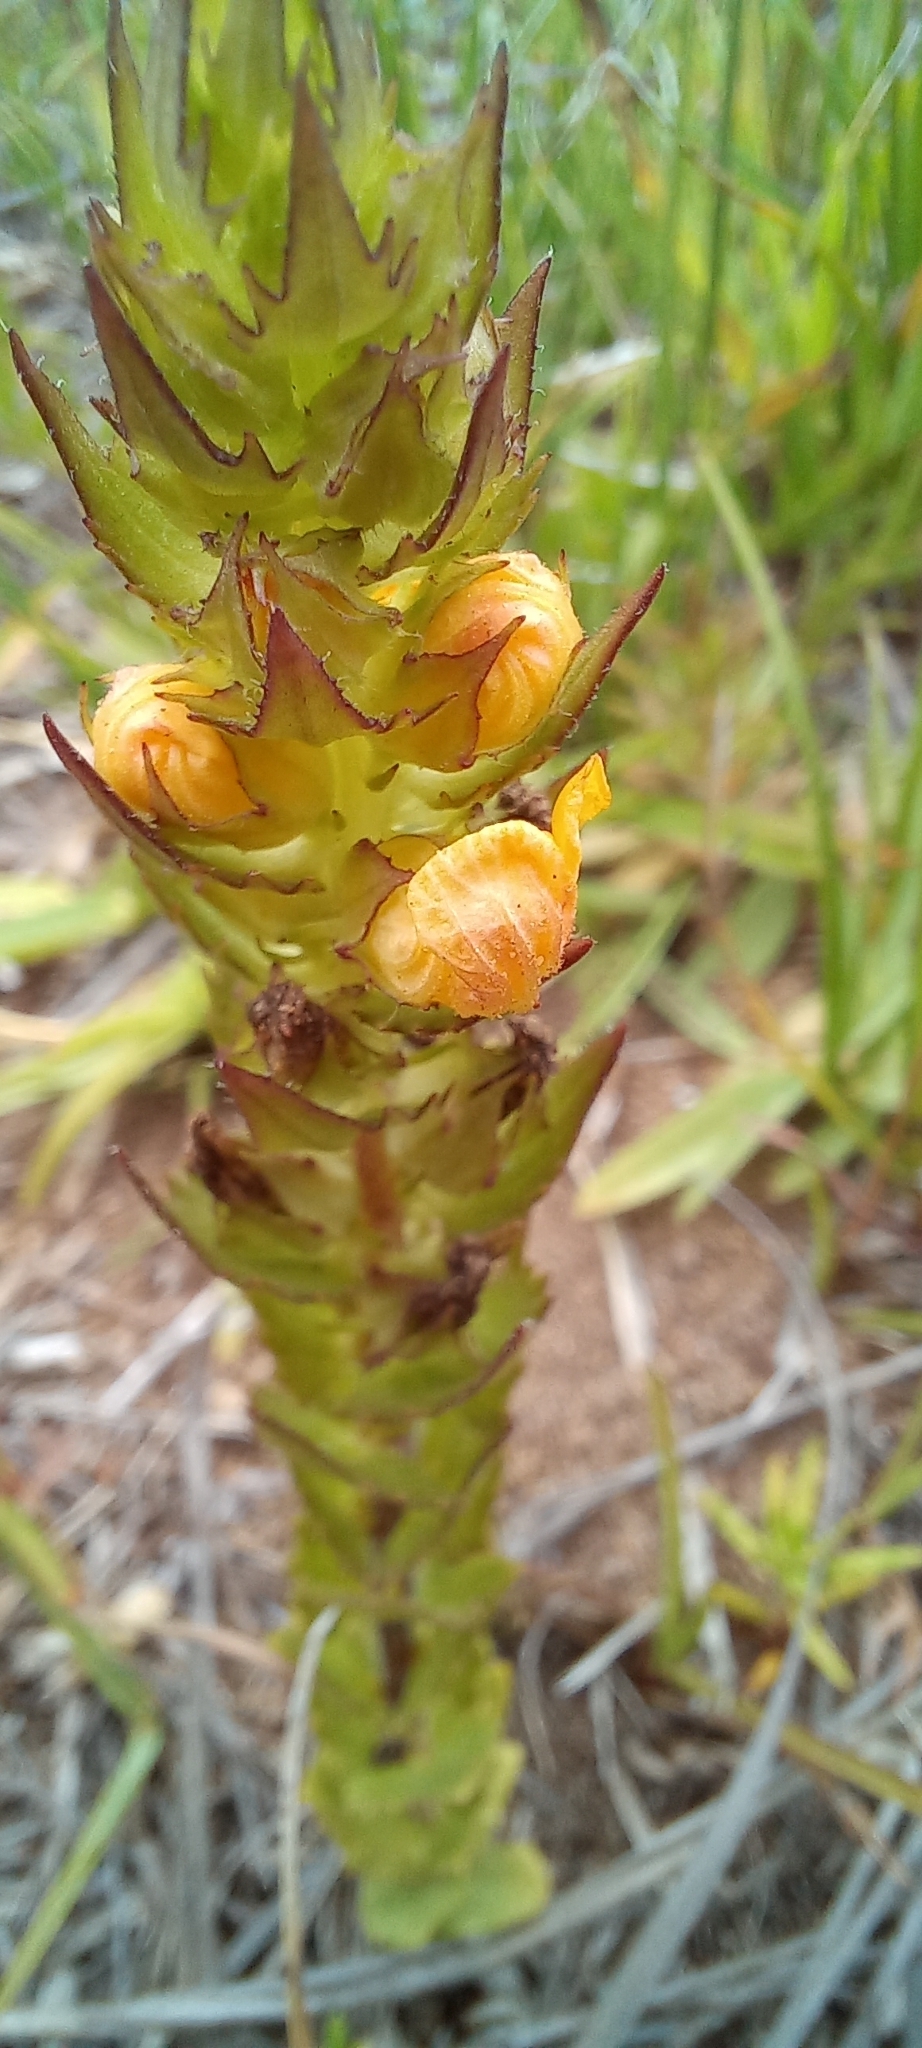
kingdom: Plantae
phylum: Tracheophyta
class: Magnoliopsida
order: Lamiales
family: Orobanchaceae
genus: Alectra
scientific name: Alectra sessiliflora
